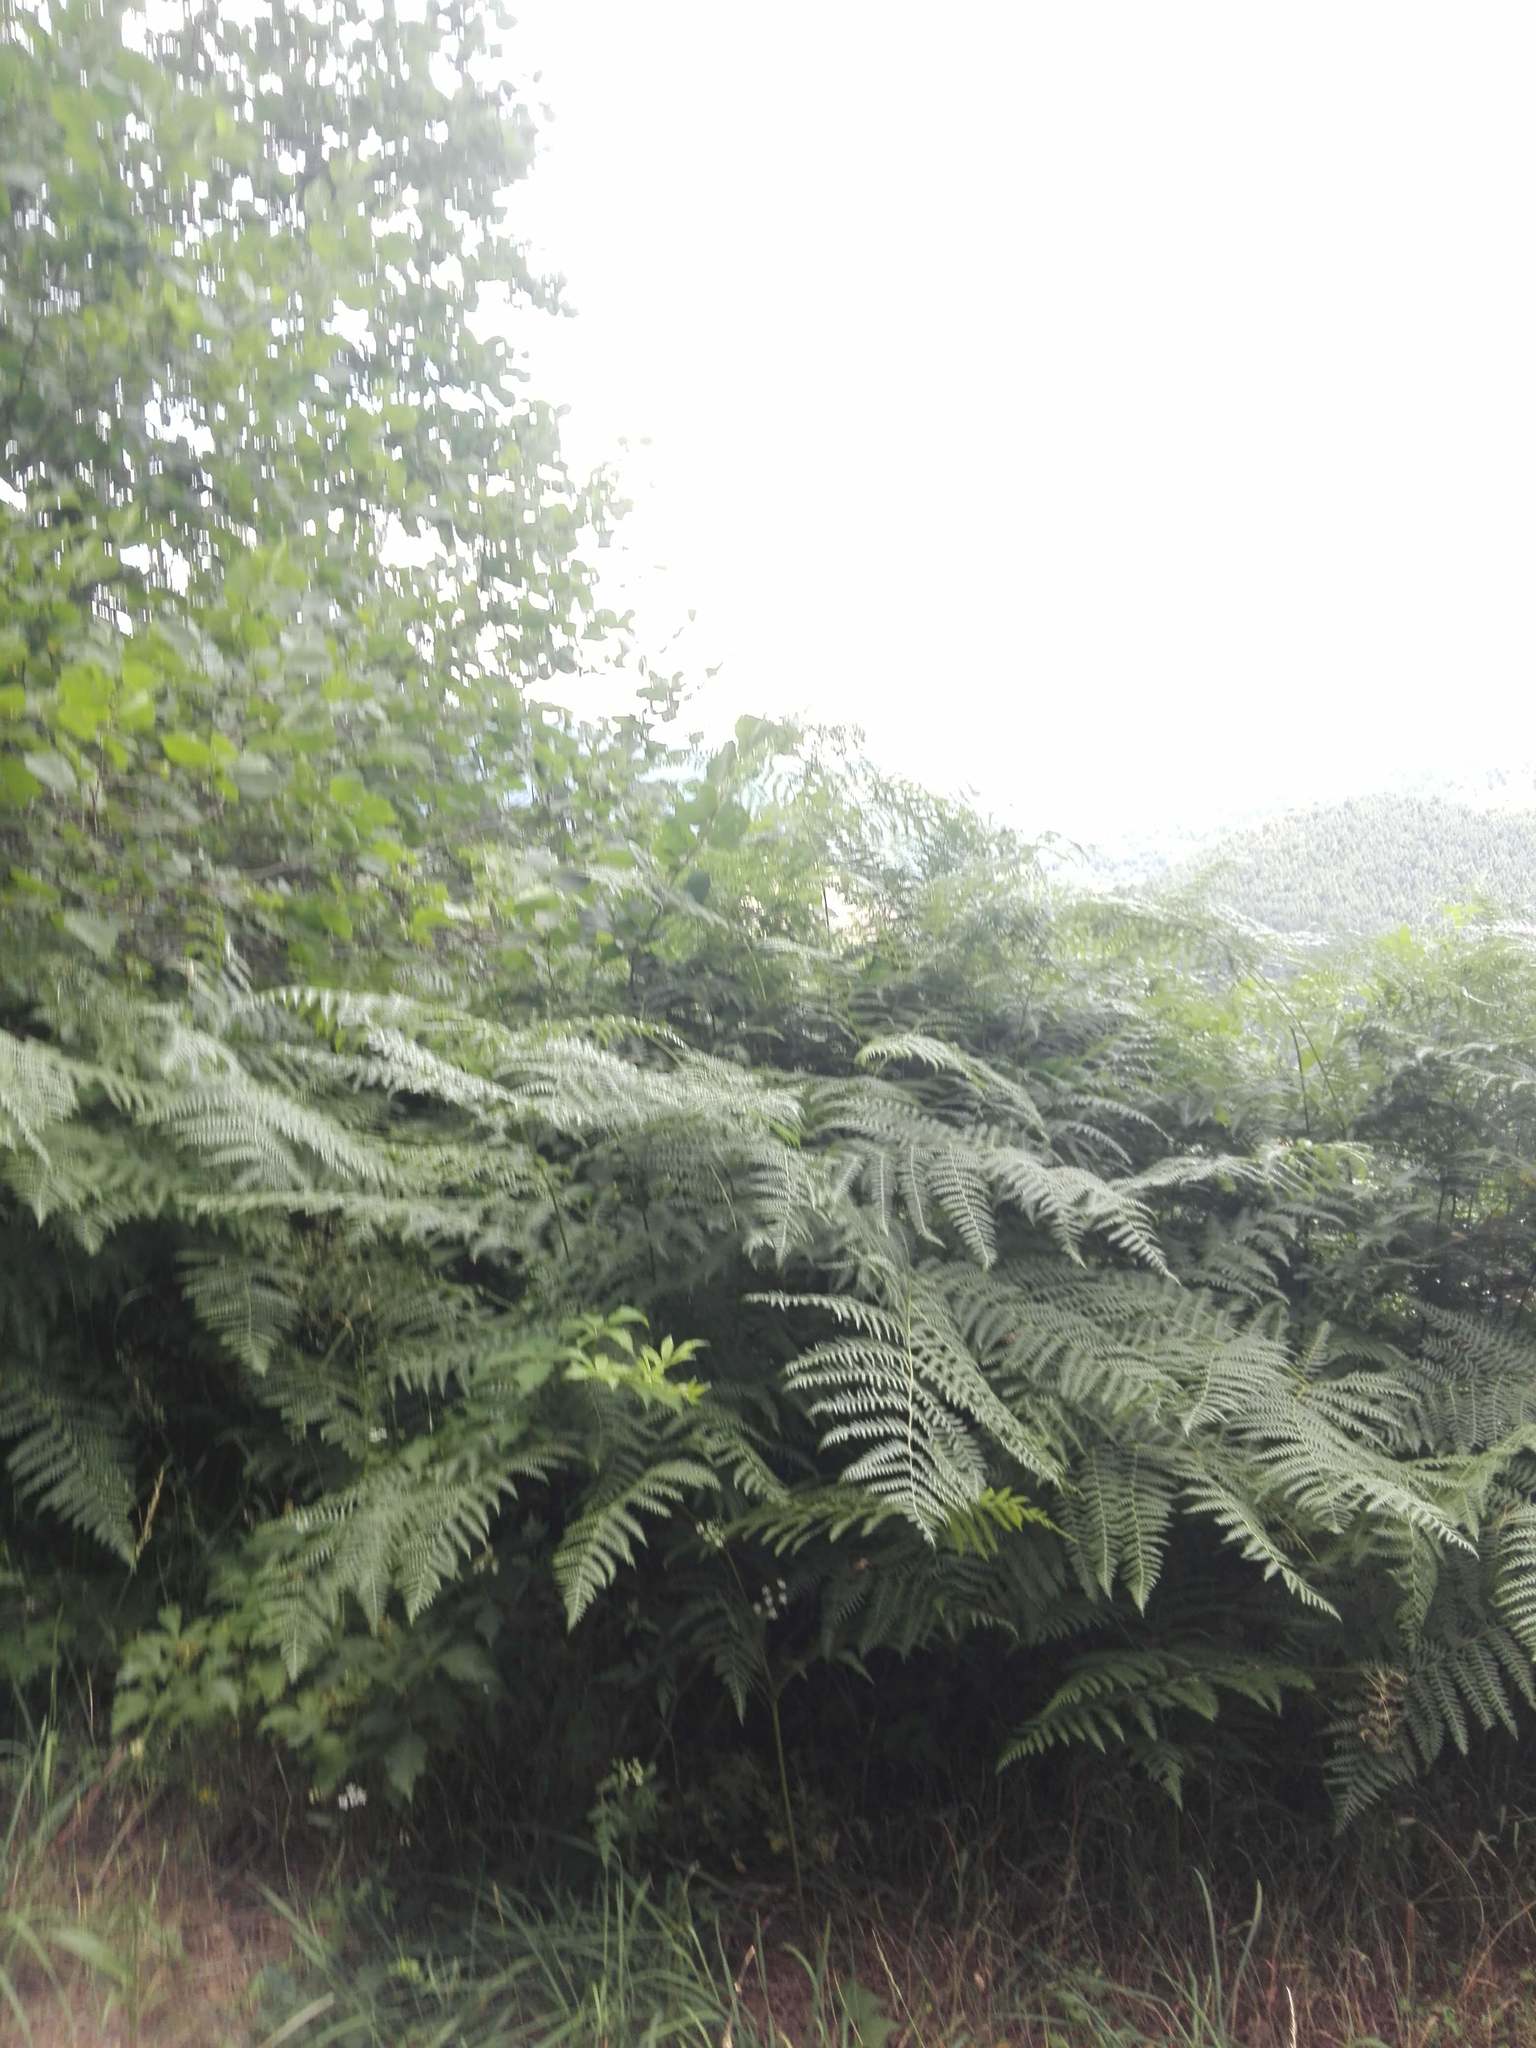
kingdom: Plantae
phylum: Tracheophyta
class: Polypodiopsida
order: Polypodiales
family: Dennstaedtiaceae
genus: Pteridium
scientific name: Pteridium aquilinum
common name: Bracken
